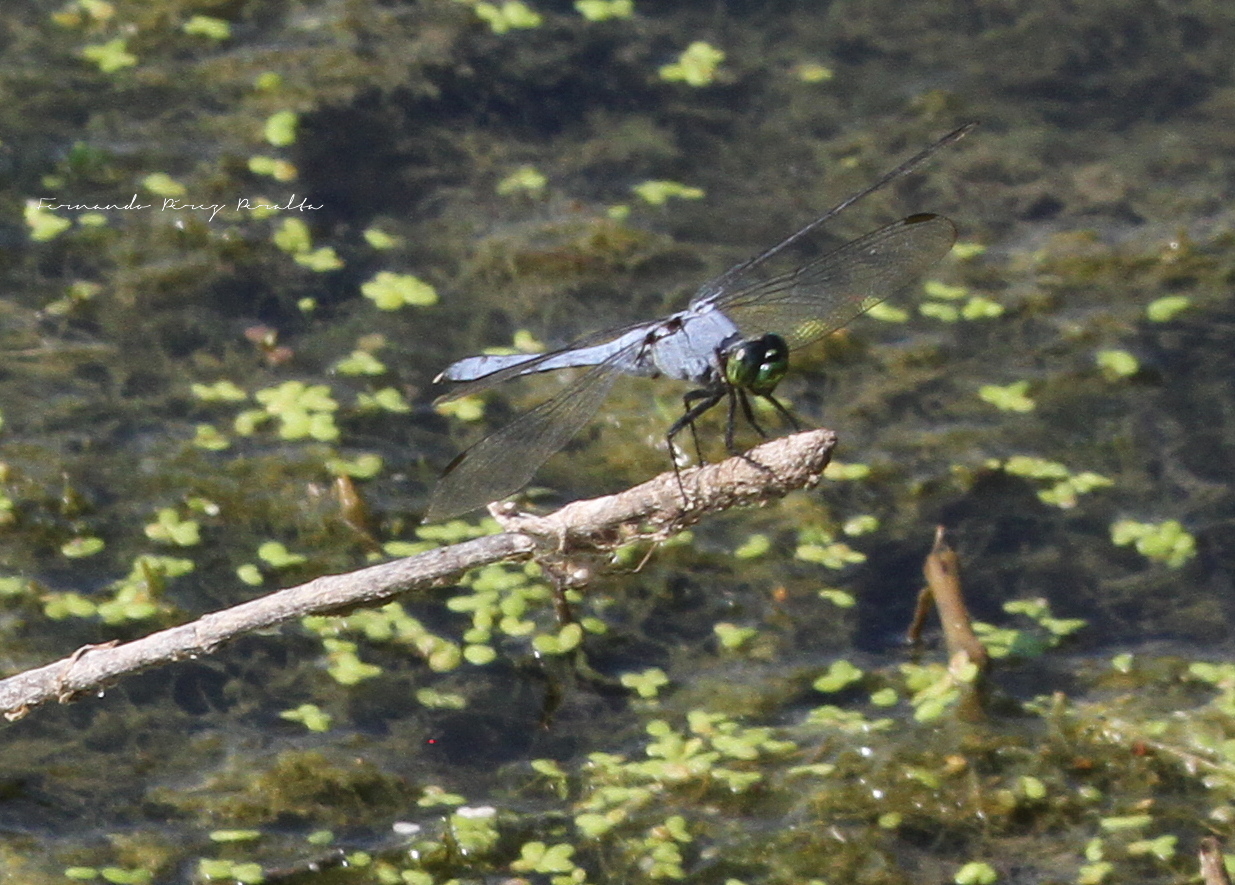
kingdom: Animalia
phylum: Arthropoda
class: Insecta
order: Odonata
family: Libellulidae
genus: Erythemis
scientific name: Erythemis simplicicollis
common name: Eastern pondhawk
